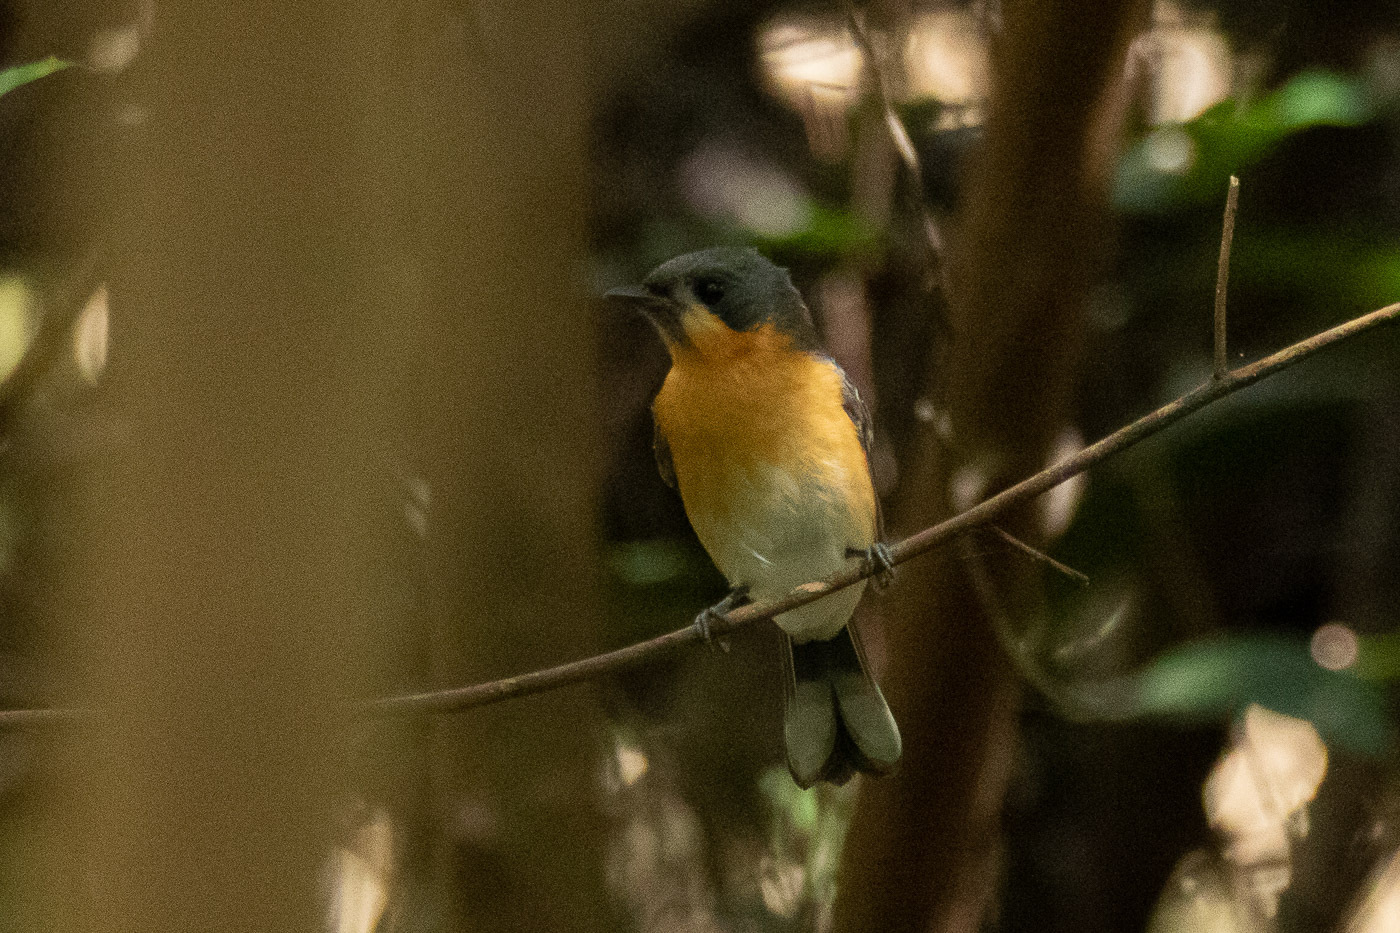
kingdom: Animalia
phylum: Chordata
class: Aves
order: Passeriformes
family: Monarchidae
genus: Symposiachrus
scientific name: Symposiachrus trivirgatus
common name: Spectacled monarch
